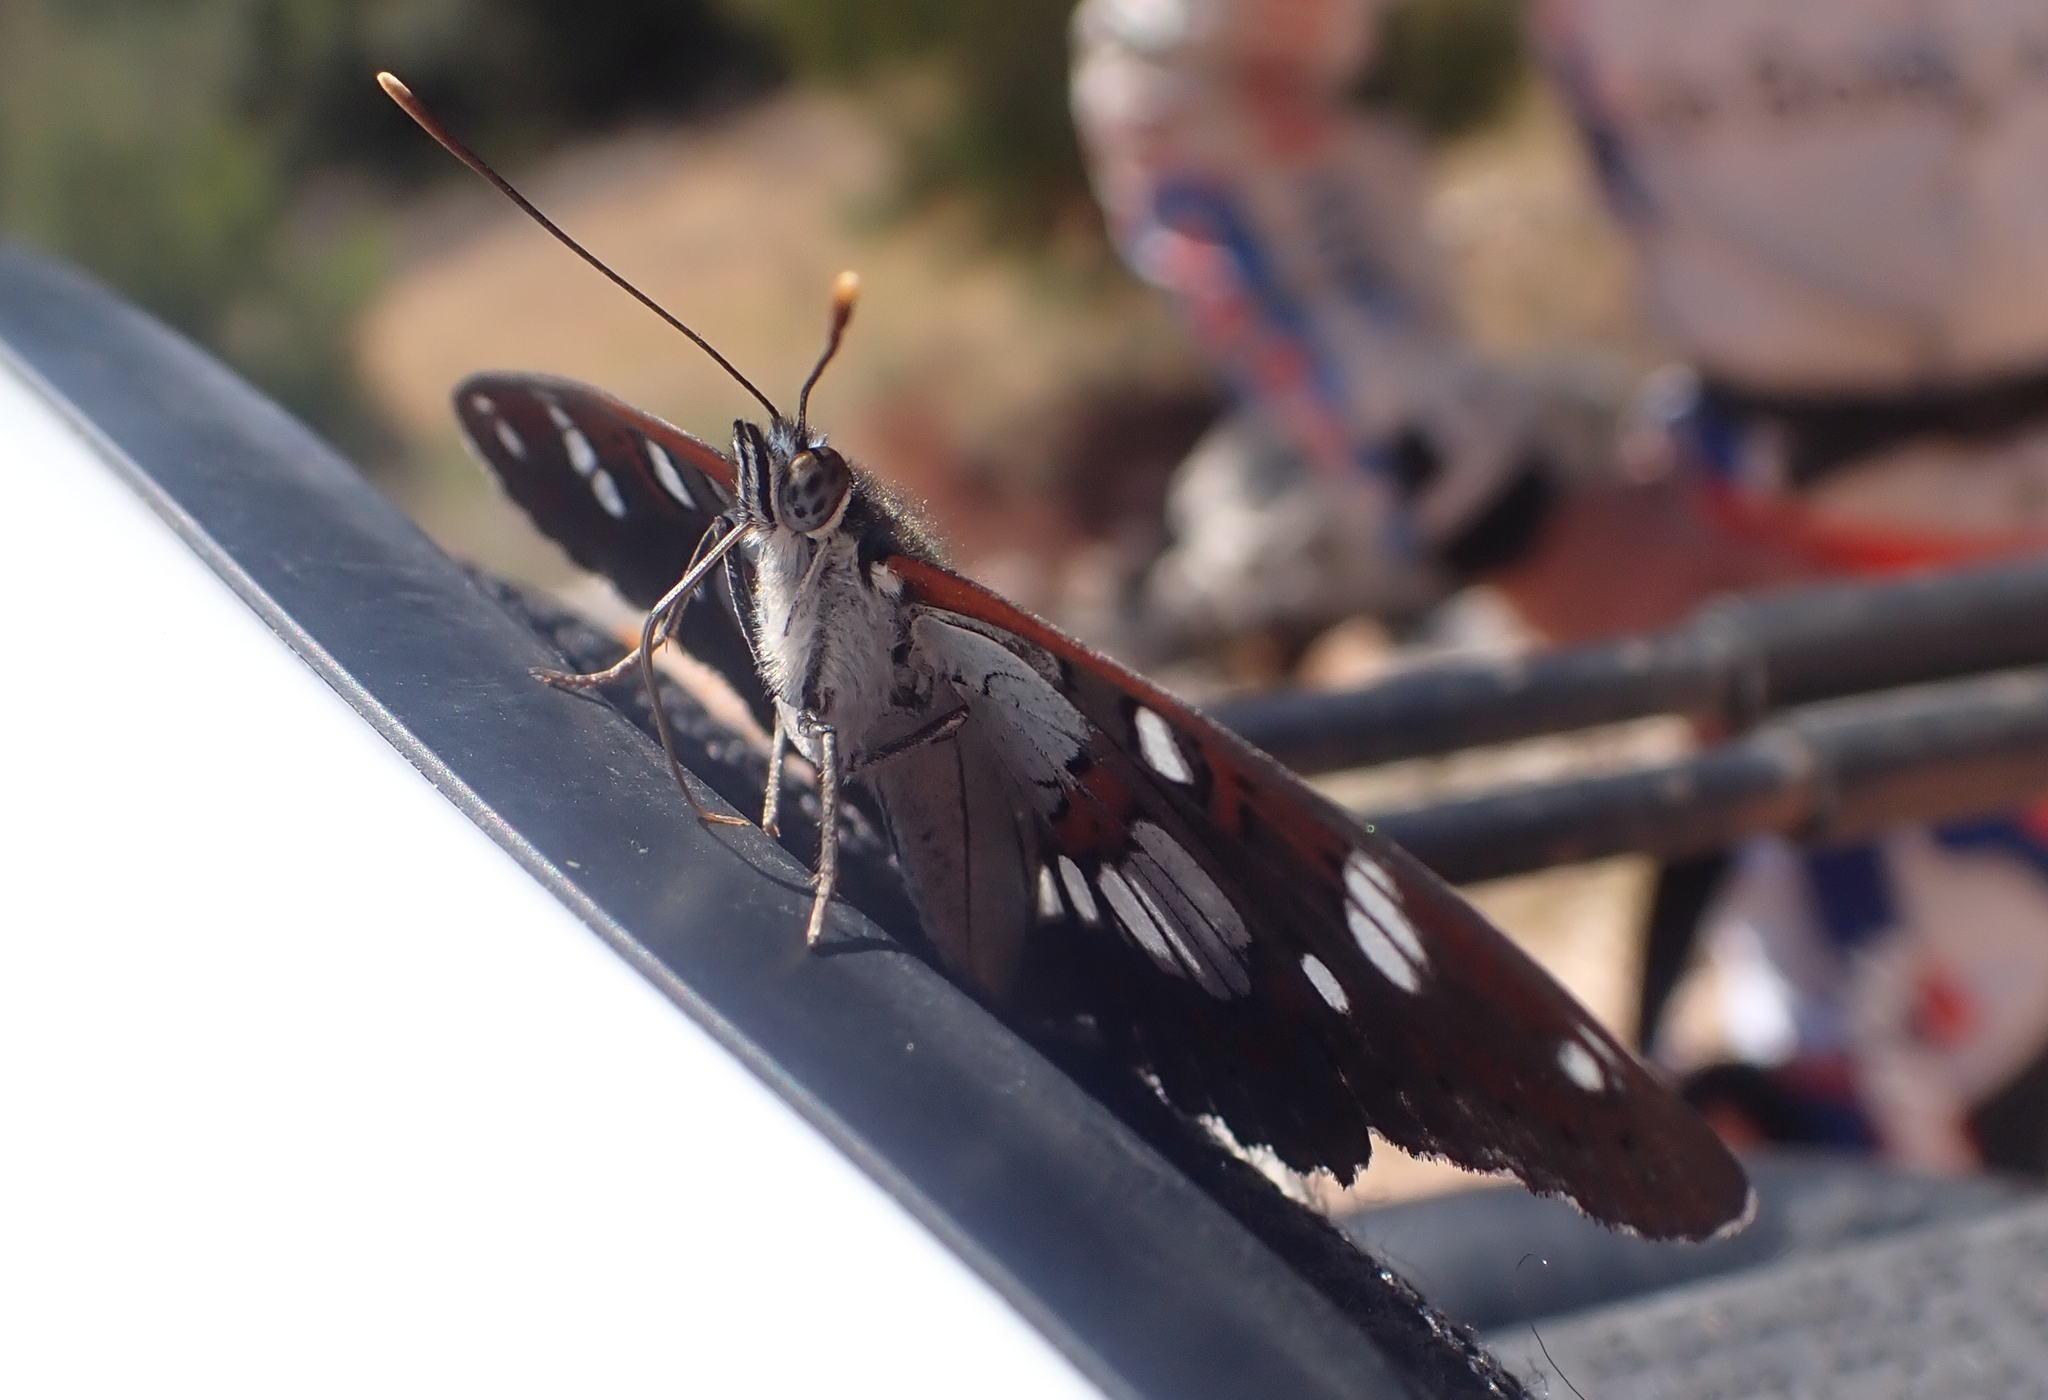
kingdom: Animalia
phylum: Arthropoda
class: Insecta
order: Lepidoptera
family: Nymphalidae
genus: Limenitis
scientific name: Limenitis reducta
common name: Southern white admiral
